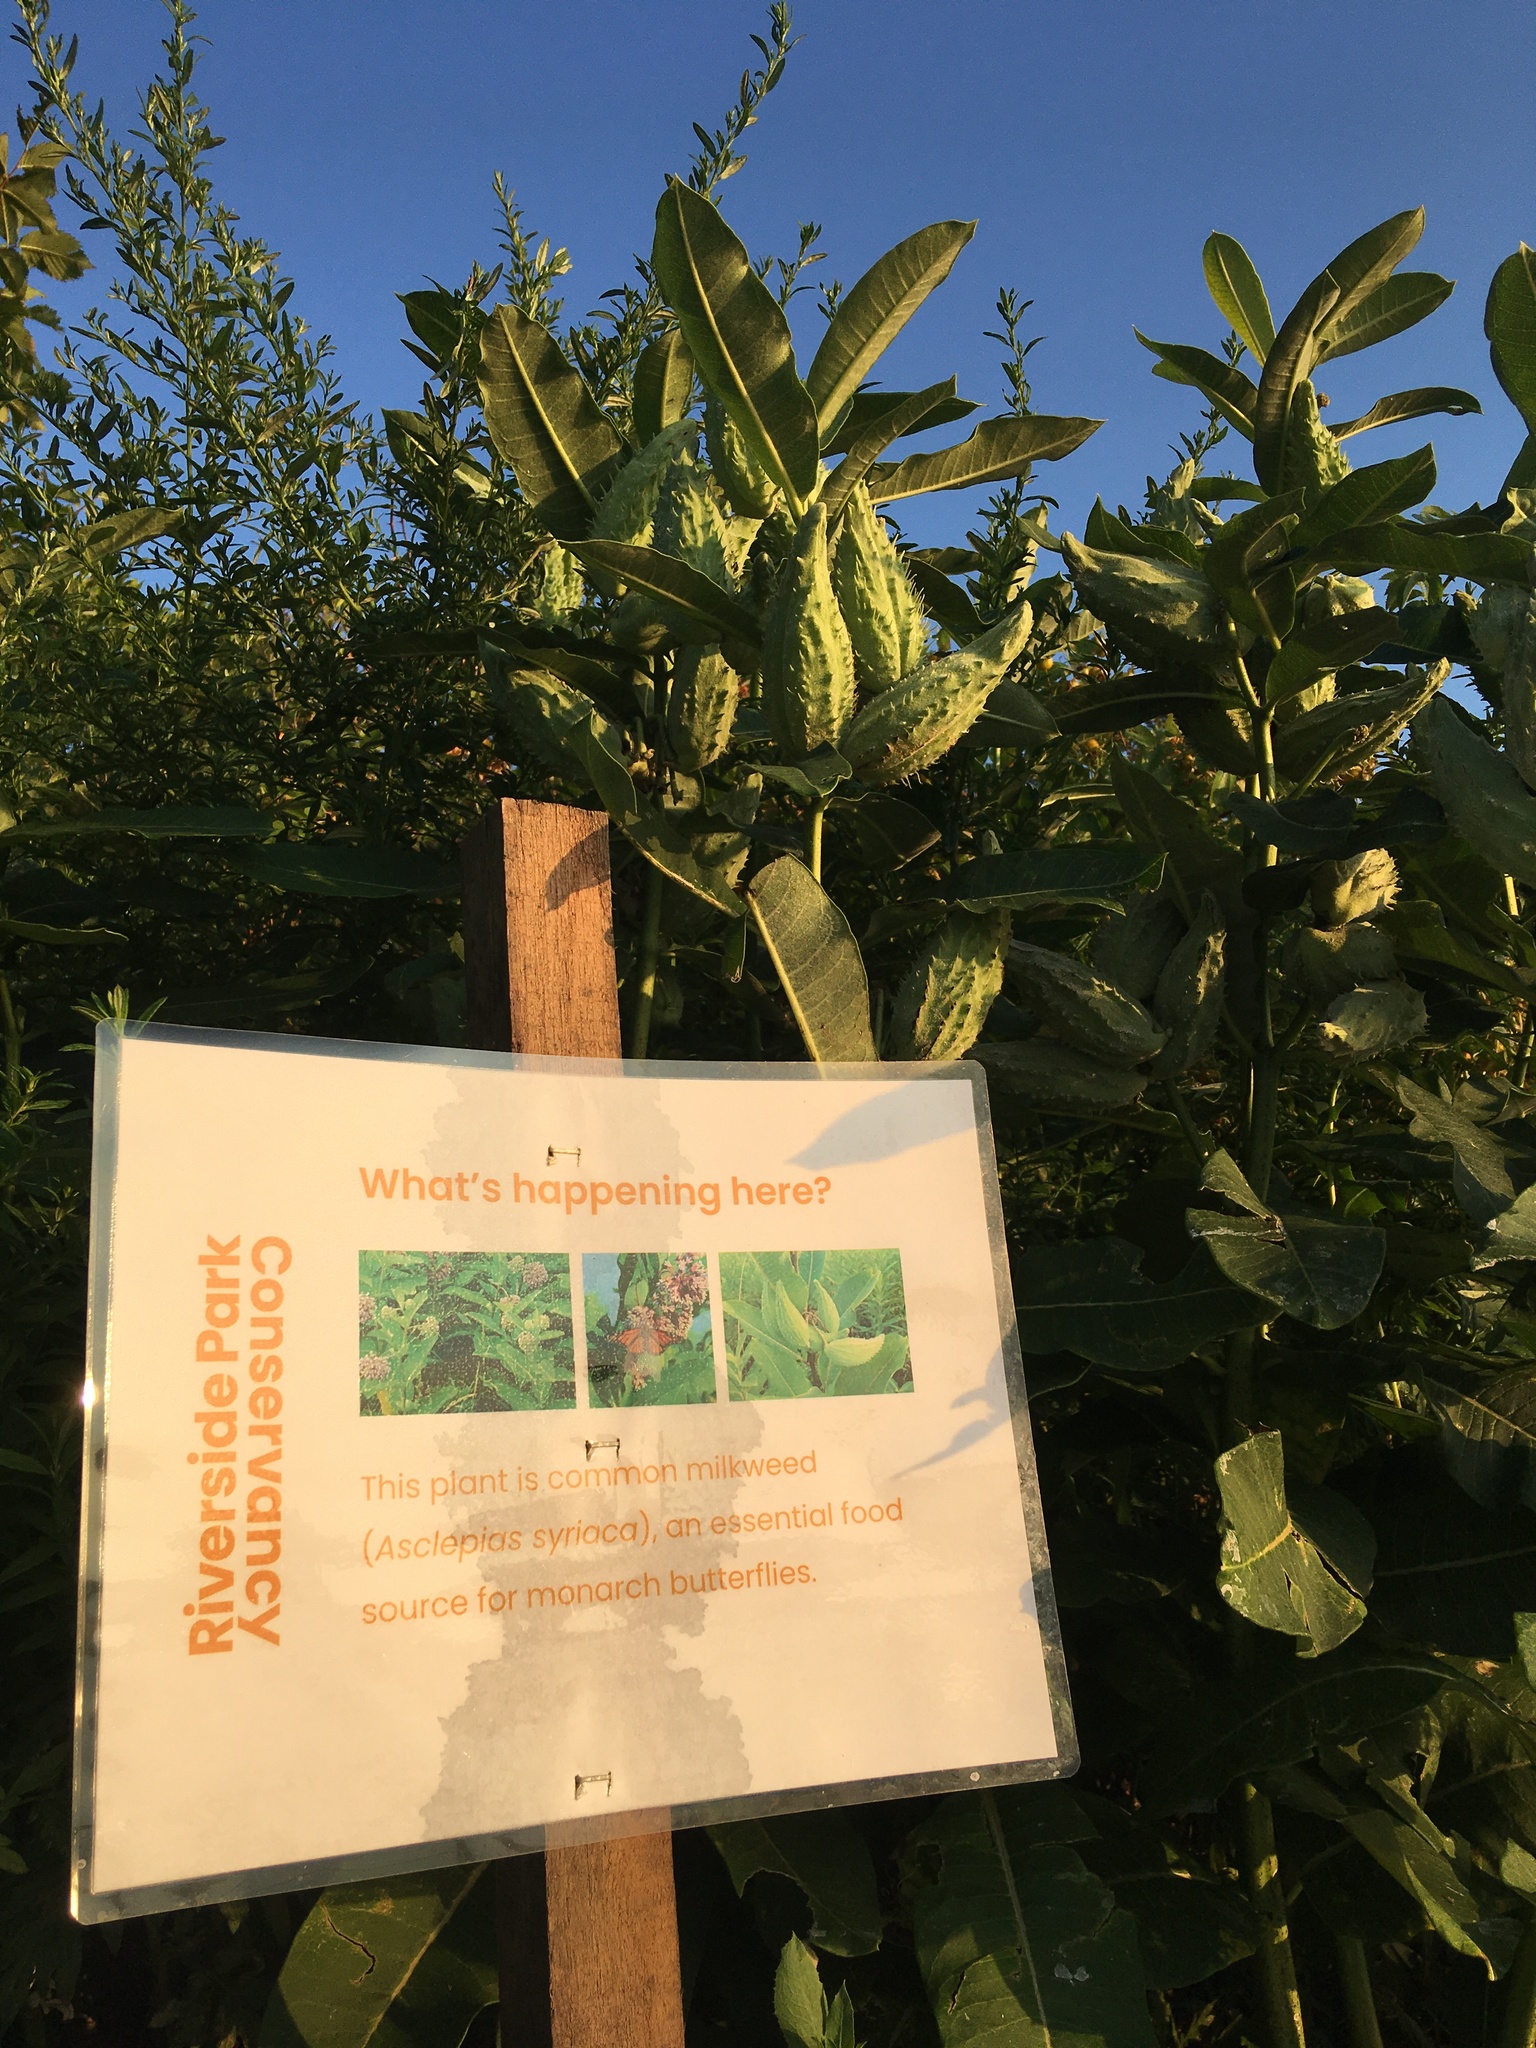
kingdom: Plantae
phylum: Tracheophyta
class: Magnoliopsida
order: Gentianales
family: Apocynaceae
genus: Asclepias
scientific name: Asclepias syriaca
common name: Common milkweed
